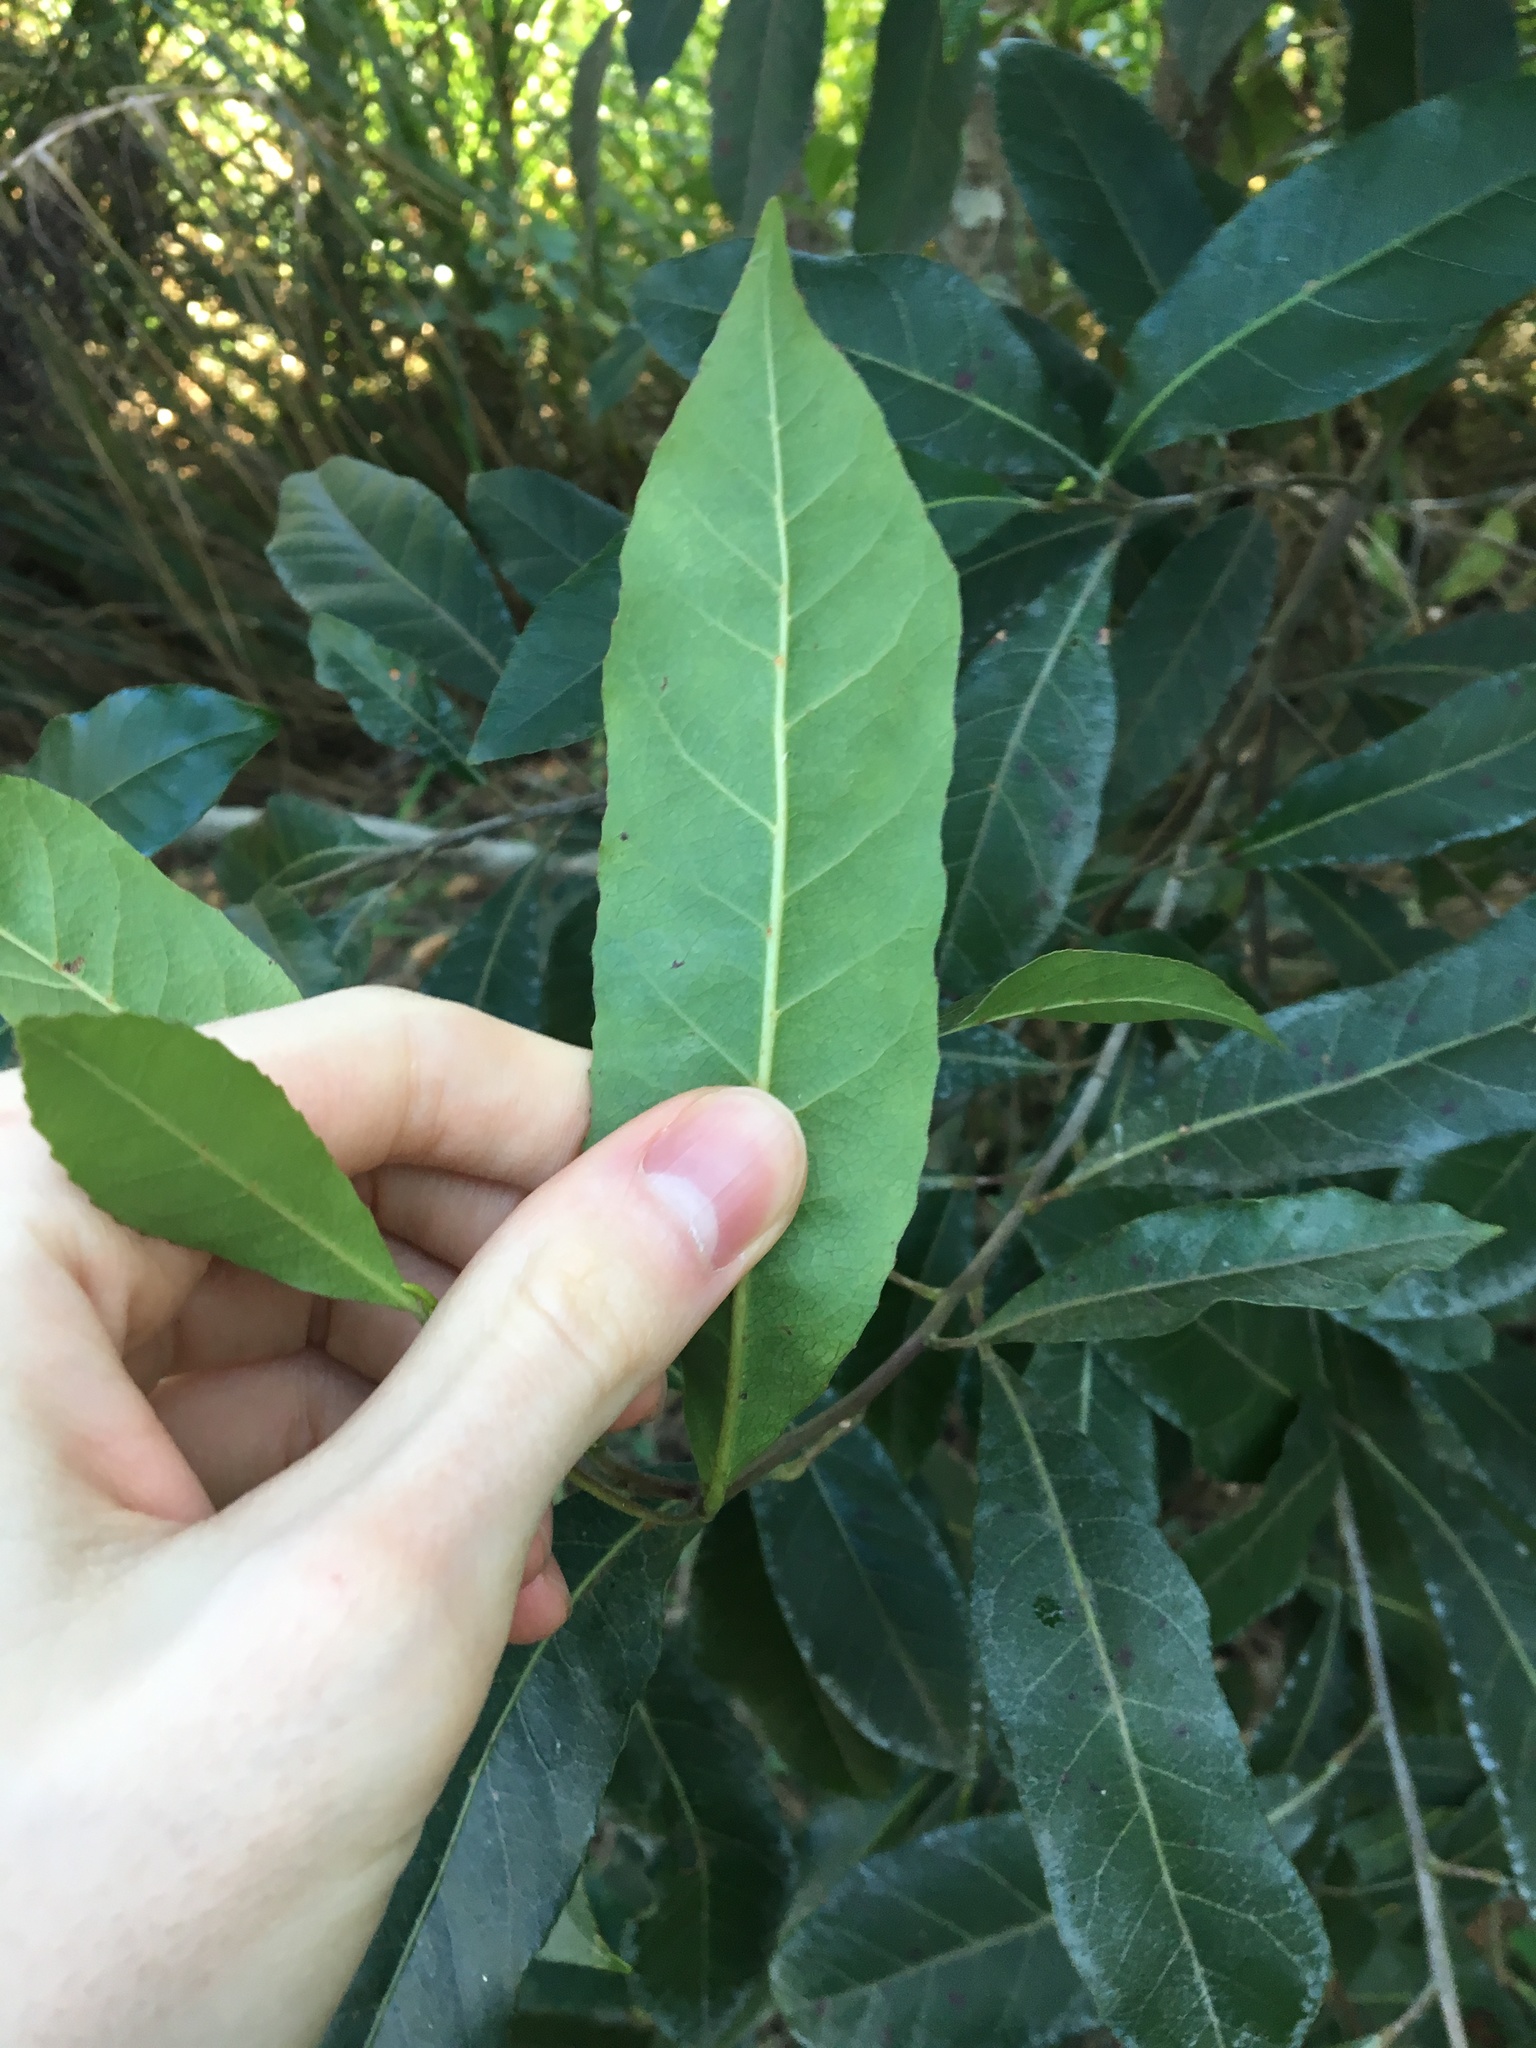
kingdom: Plantae
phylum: Tracheophyta
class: Magnoliopsida
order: Oxalidales
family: Elaeocarpaceae
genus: Elaeocarpus
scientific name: Elaeocarpus reticulatus
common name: Ash quandong
